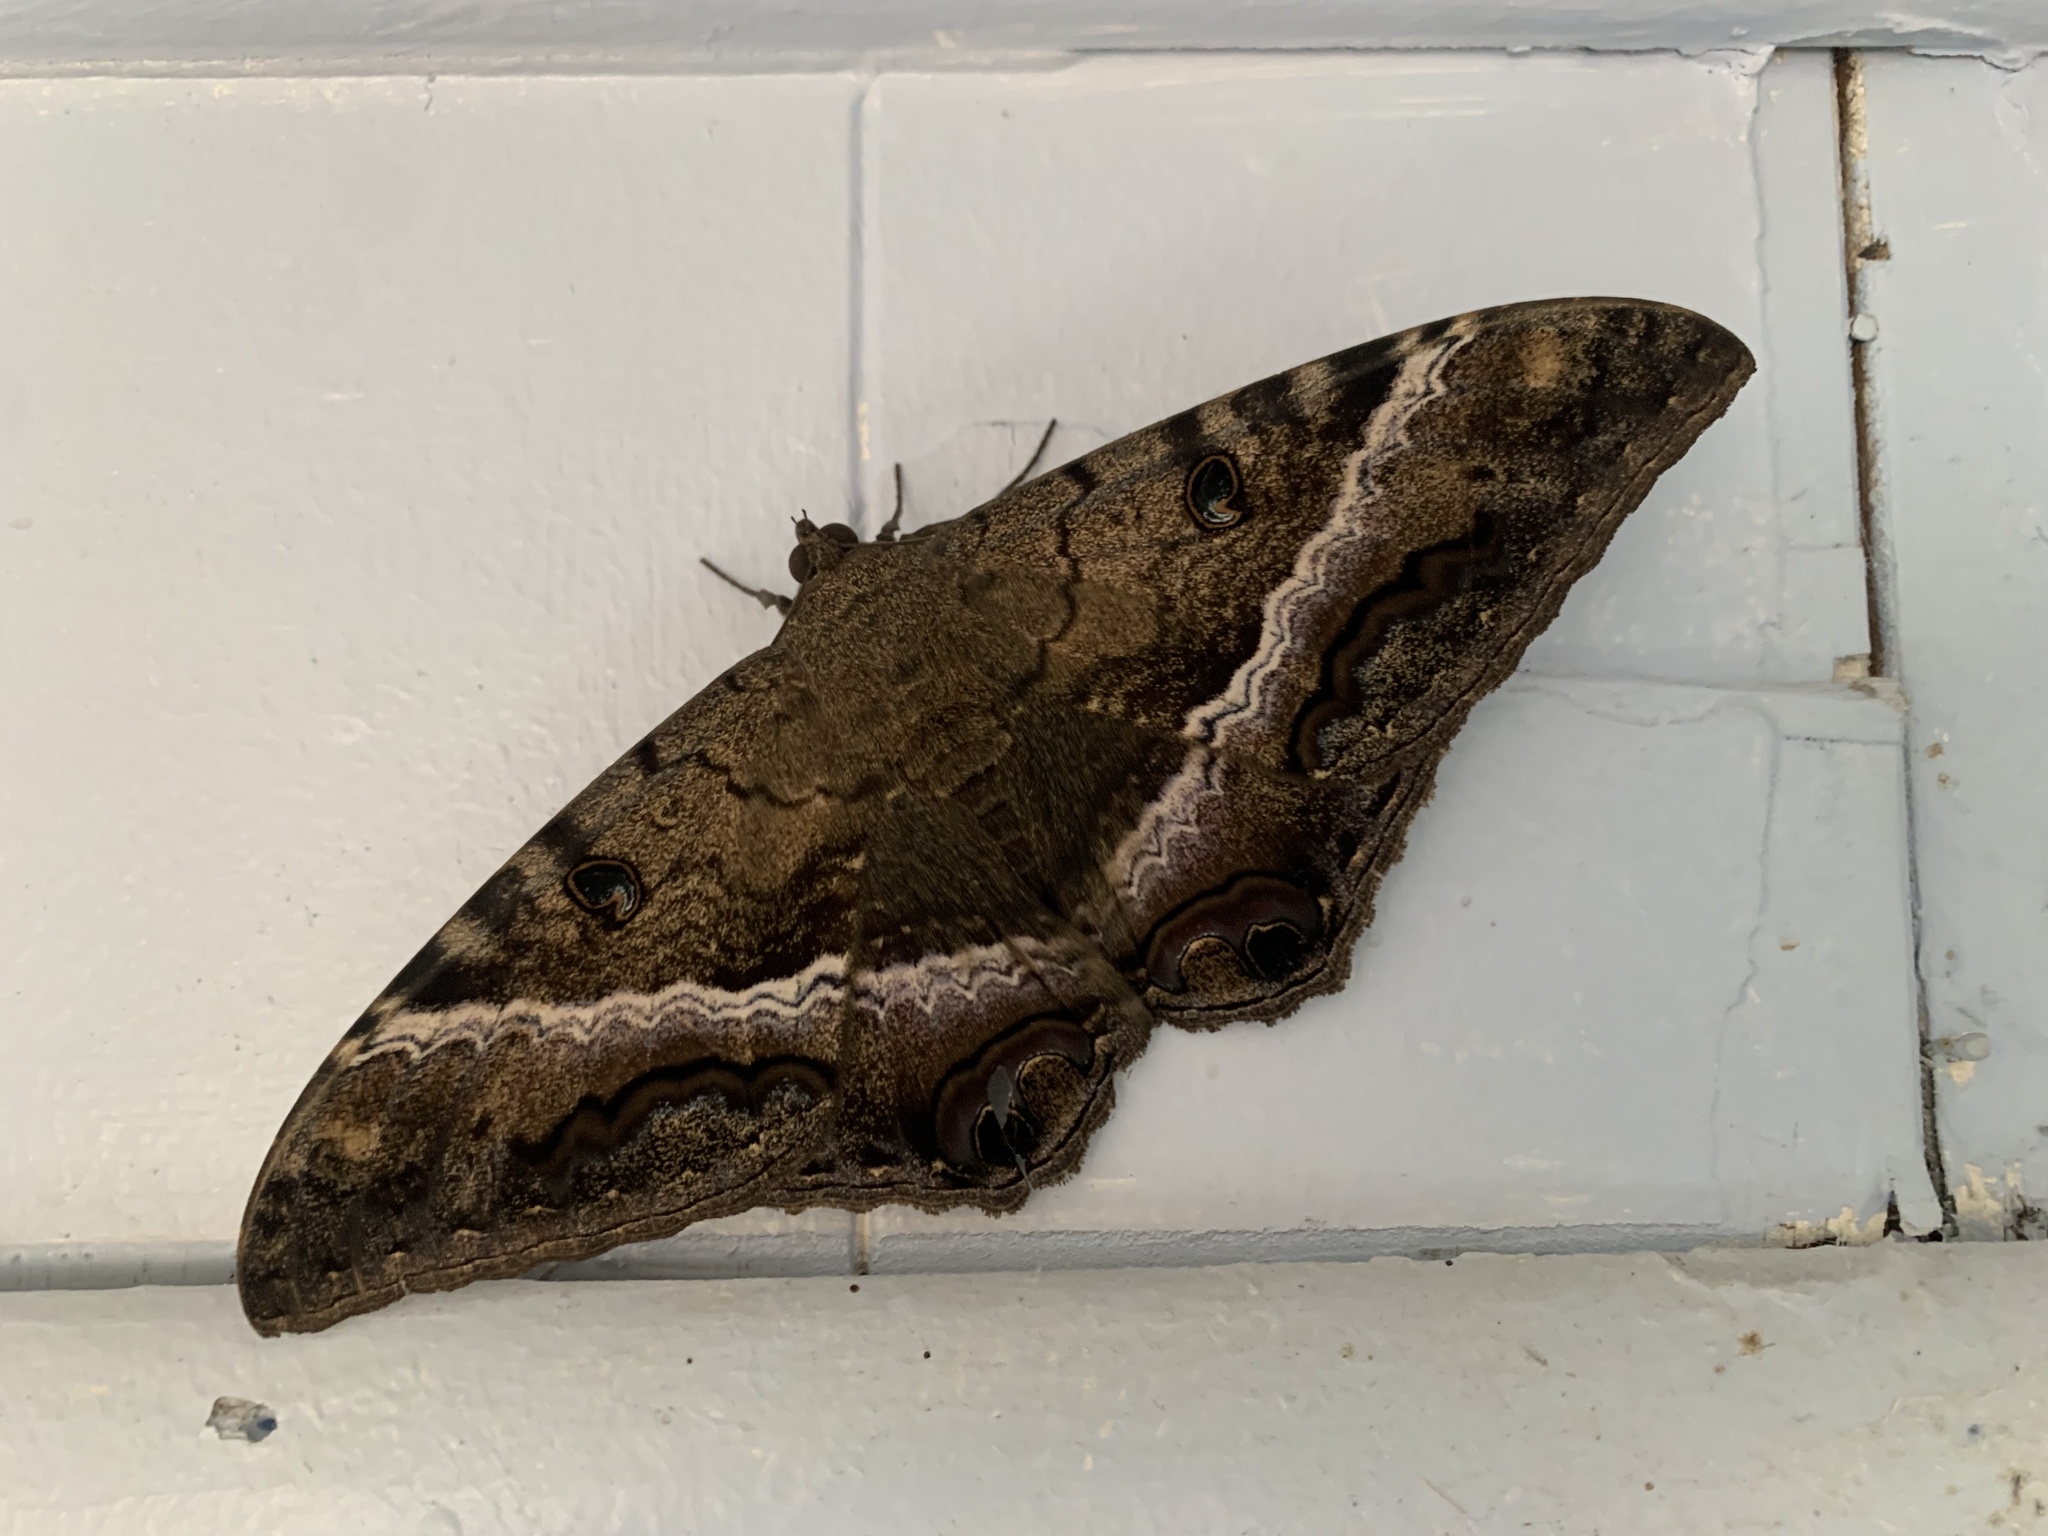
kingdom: Animalia
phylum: Arthropoda
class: Insecta
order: Lepidoptera
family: Erebidae
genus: Ascalapha
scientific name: Ascalapha odorata
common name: Black witch
